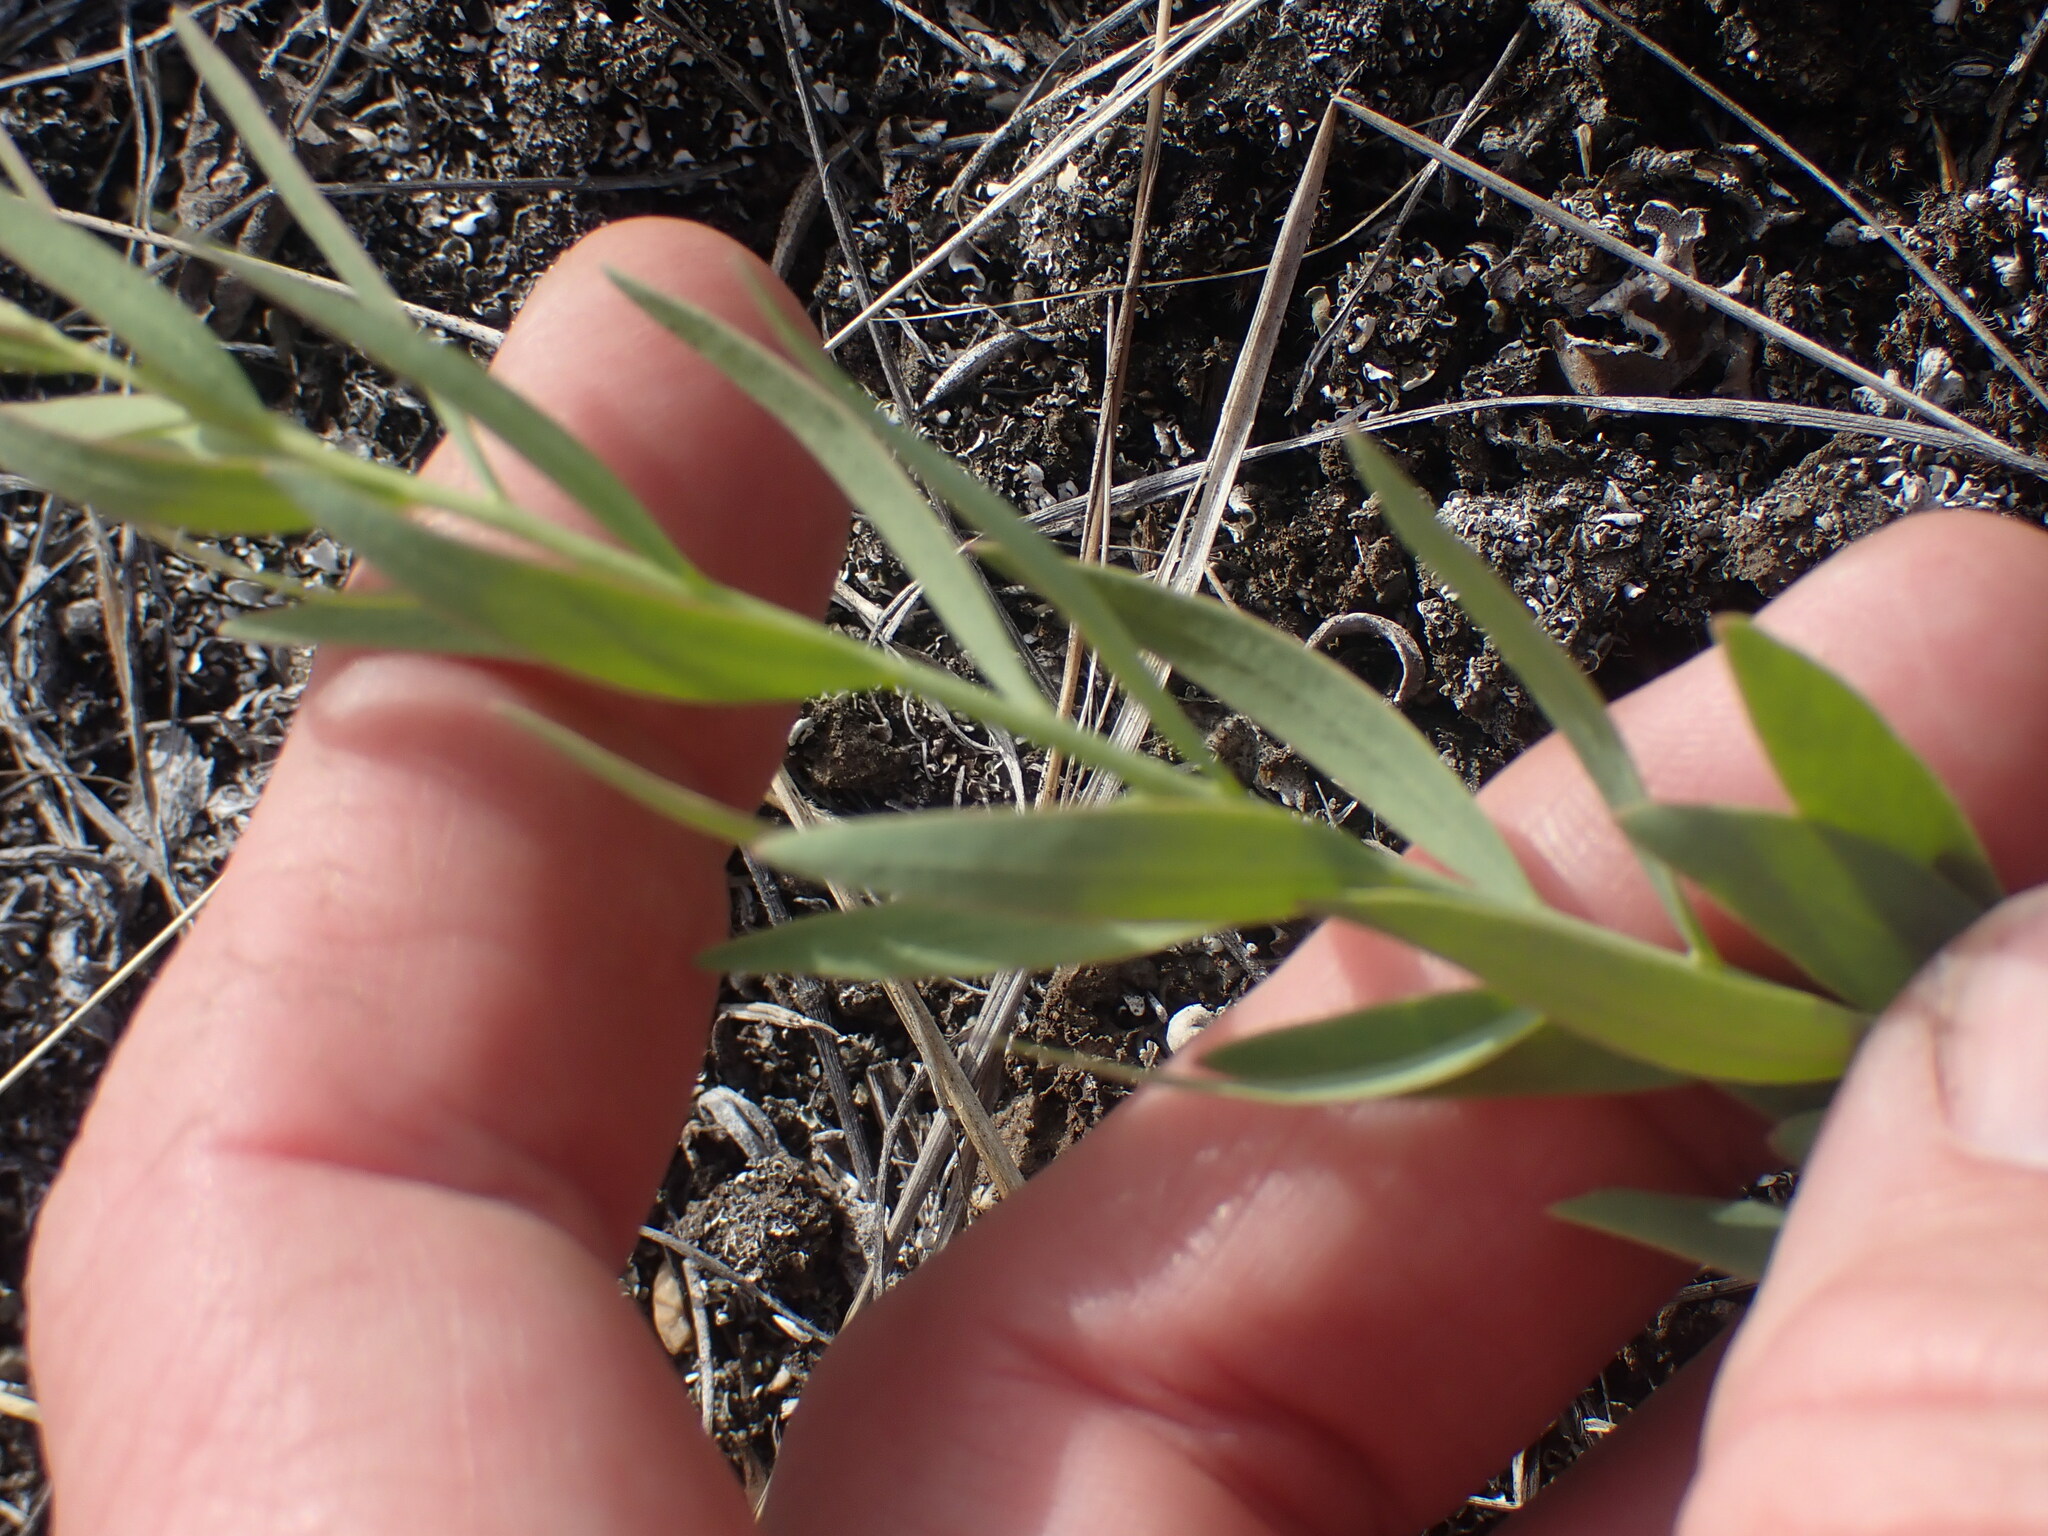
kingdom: Plantae
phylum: Tracheophyta
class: Magnoliopsida
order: Santalales
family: Comandraceae
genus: Comandra
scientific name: Comandra umbellata
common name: Bastard toadflax
